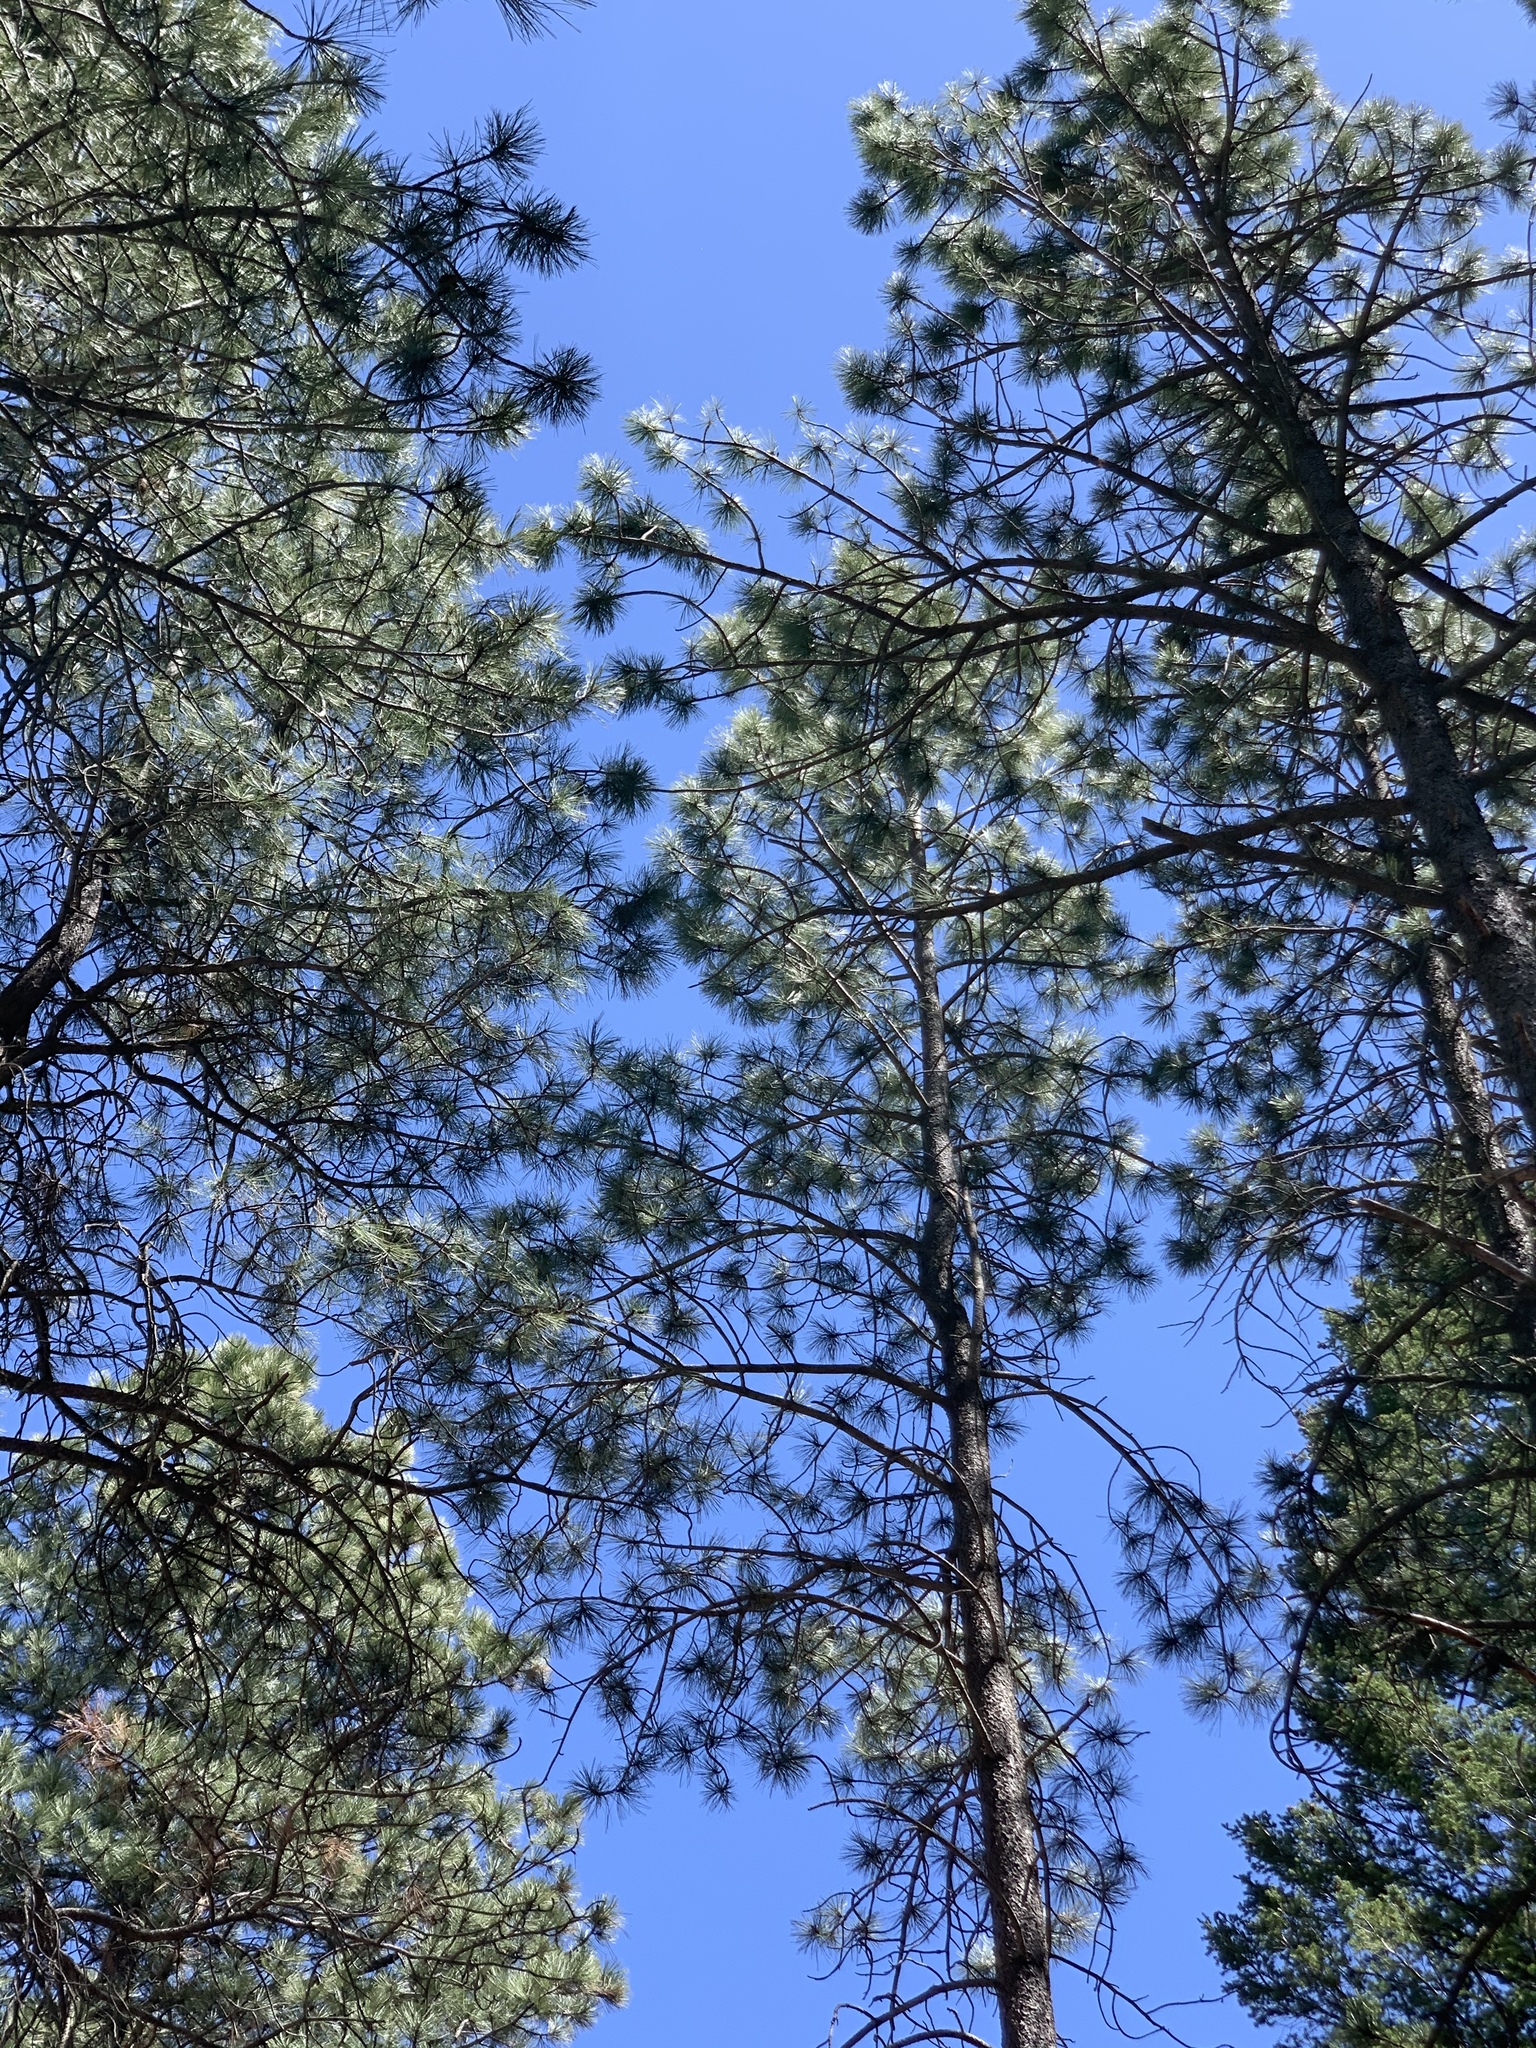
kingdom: Plantae
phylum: Tracheophyta
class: Pinopsida
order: Pinales
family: Pinaceae
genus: Pinus
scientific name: Pinus ponderosa
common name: Western yellow-pine
